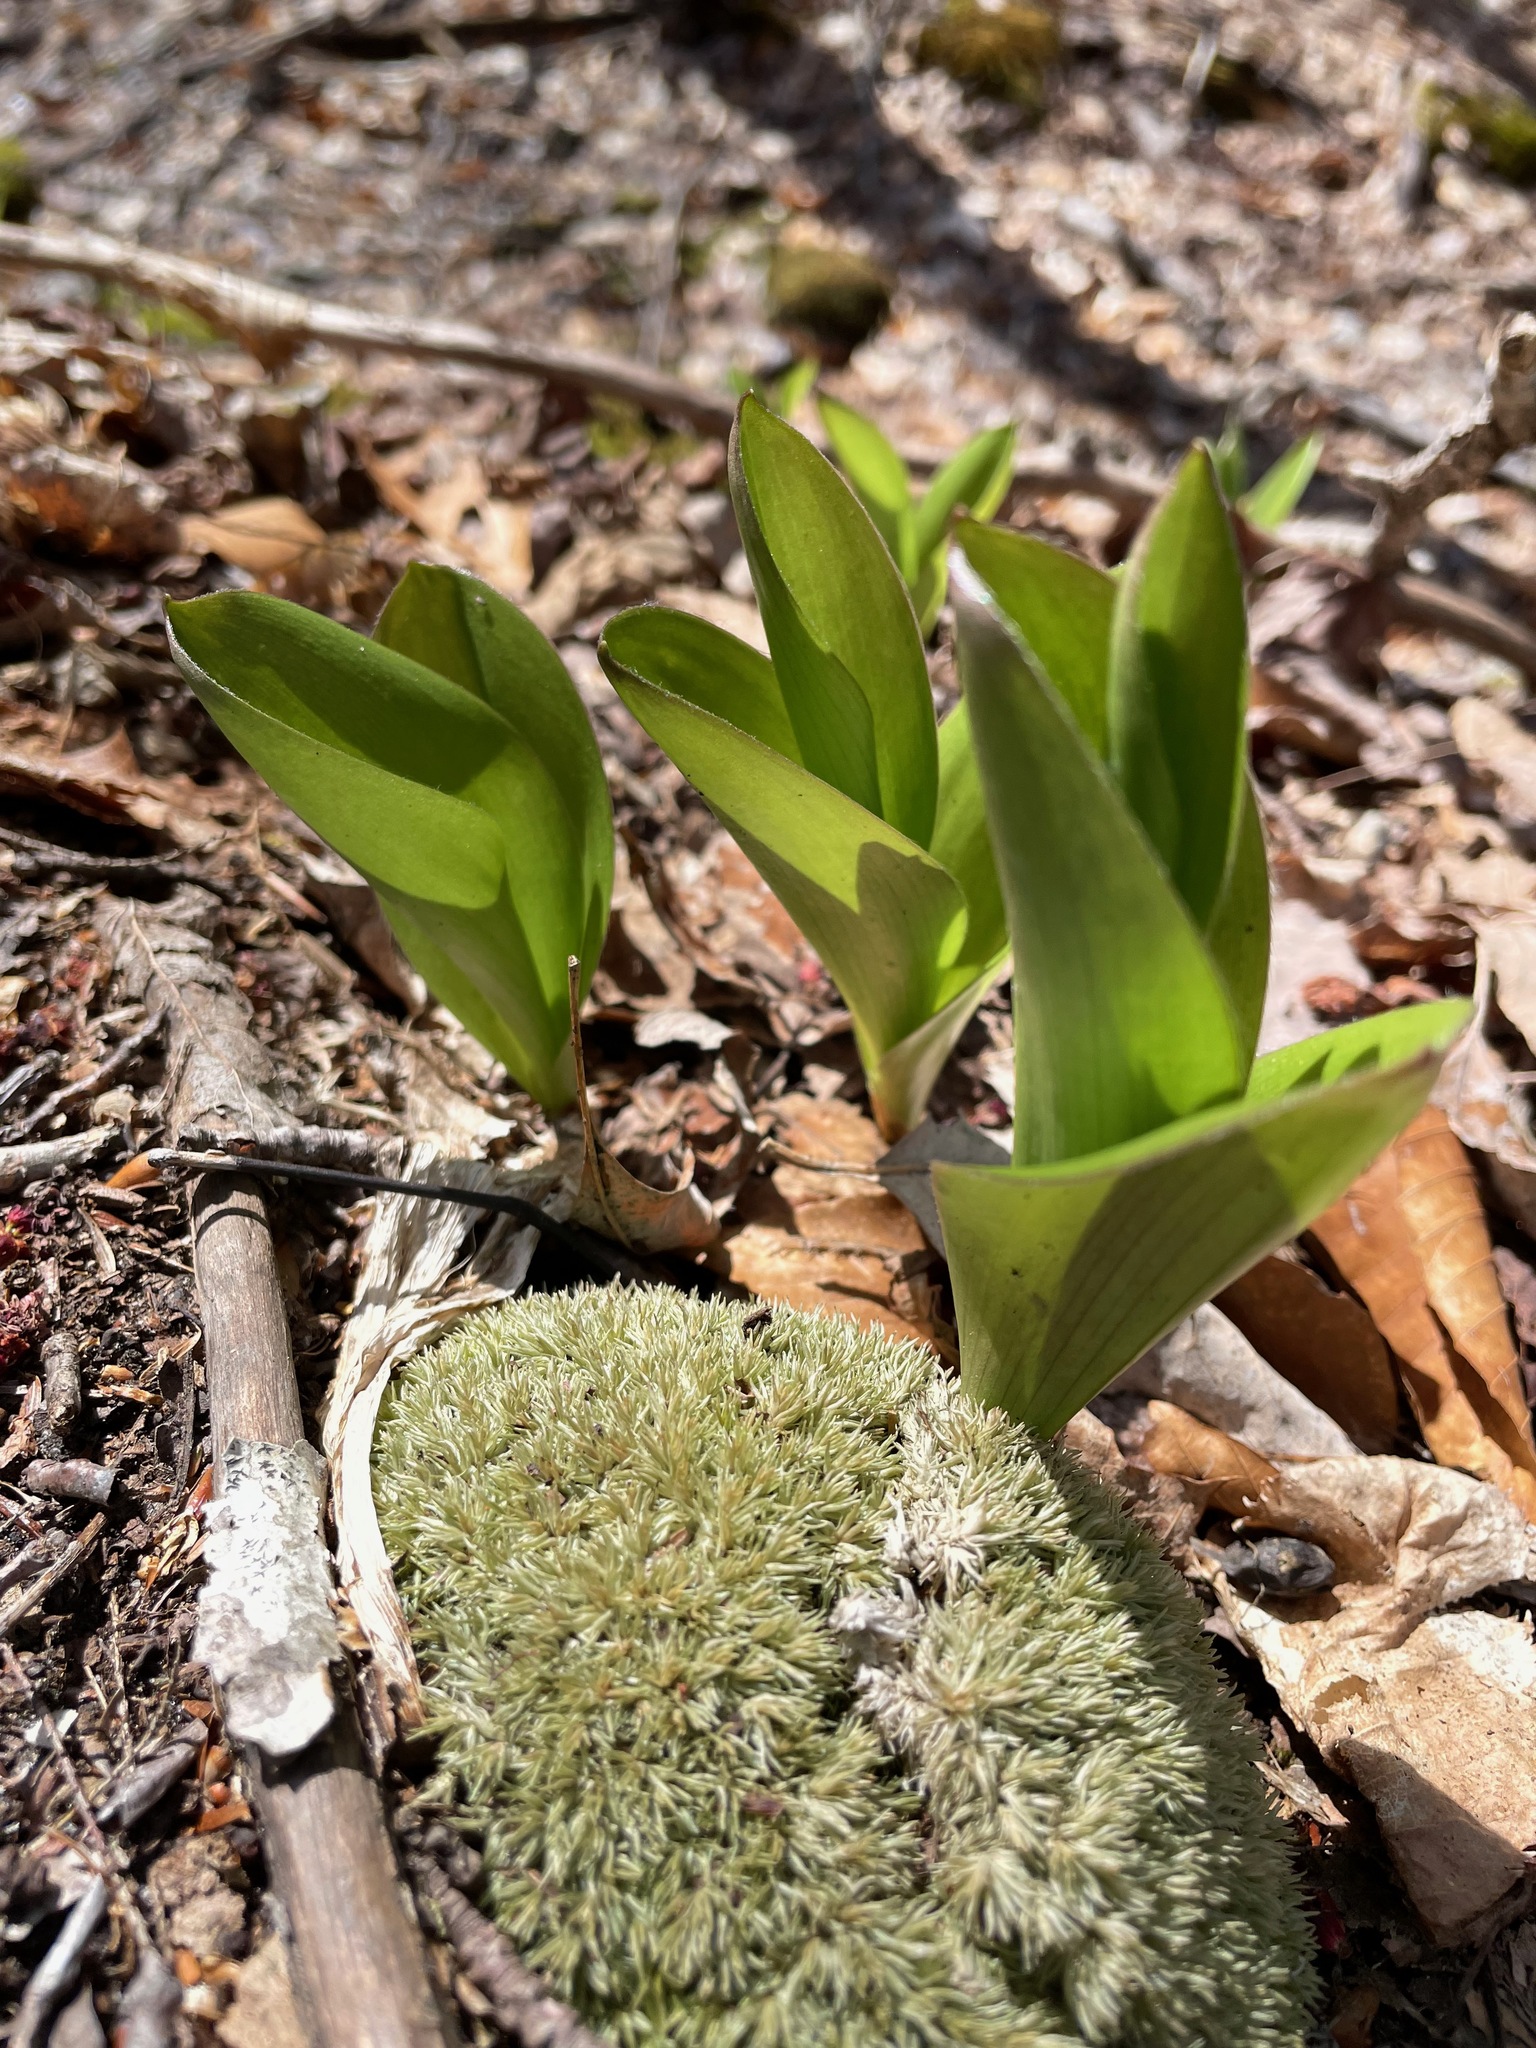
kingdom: Plantae
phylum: Tracheophyta
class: Liliopsida
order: Liliales
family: Liliaceae
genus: Clintonia
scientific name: Clintonia borealis
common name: Yellow clintonia
